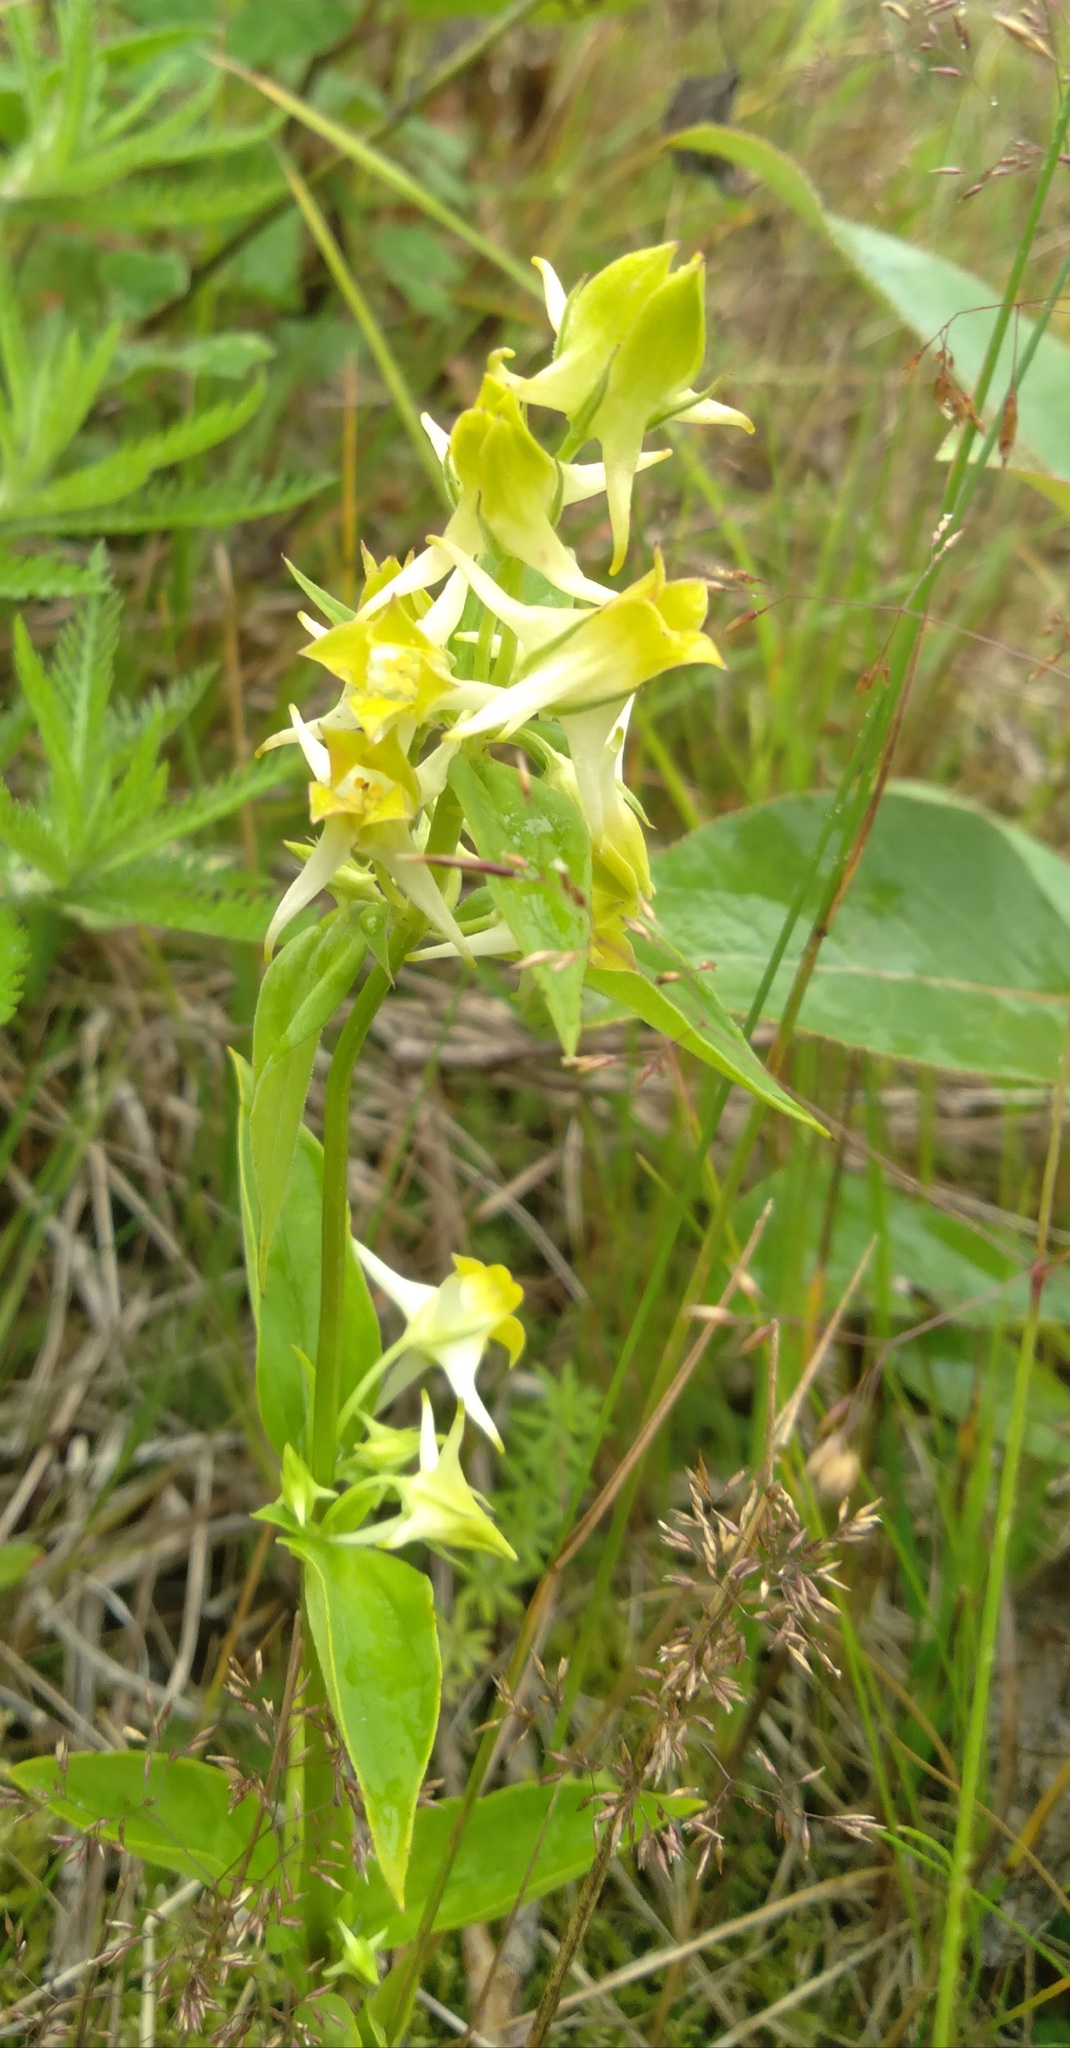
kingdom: Plantae
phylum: Tracheophyta
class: Magnoliopsida
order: Gentianales
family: Gentianaceae
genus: Halenia
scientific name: Halenia corniculata
